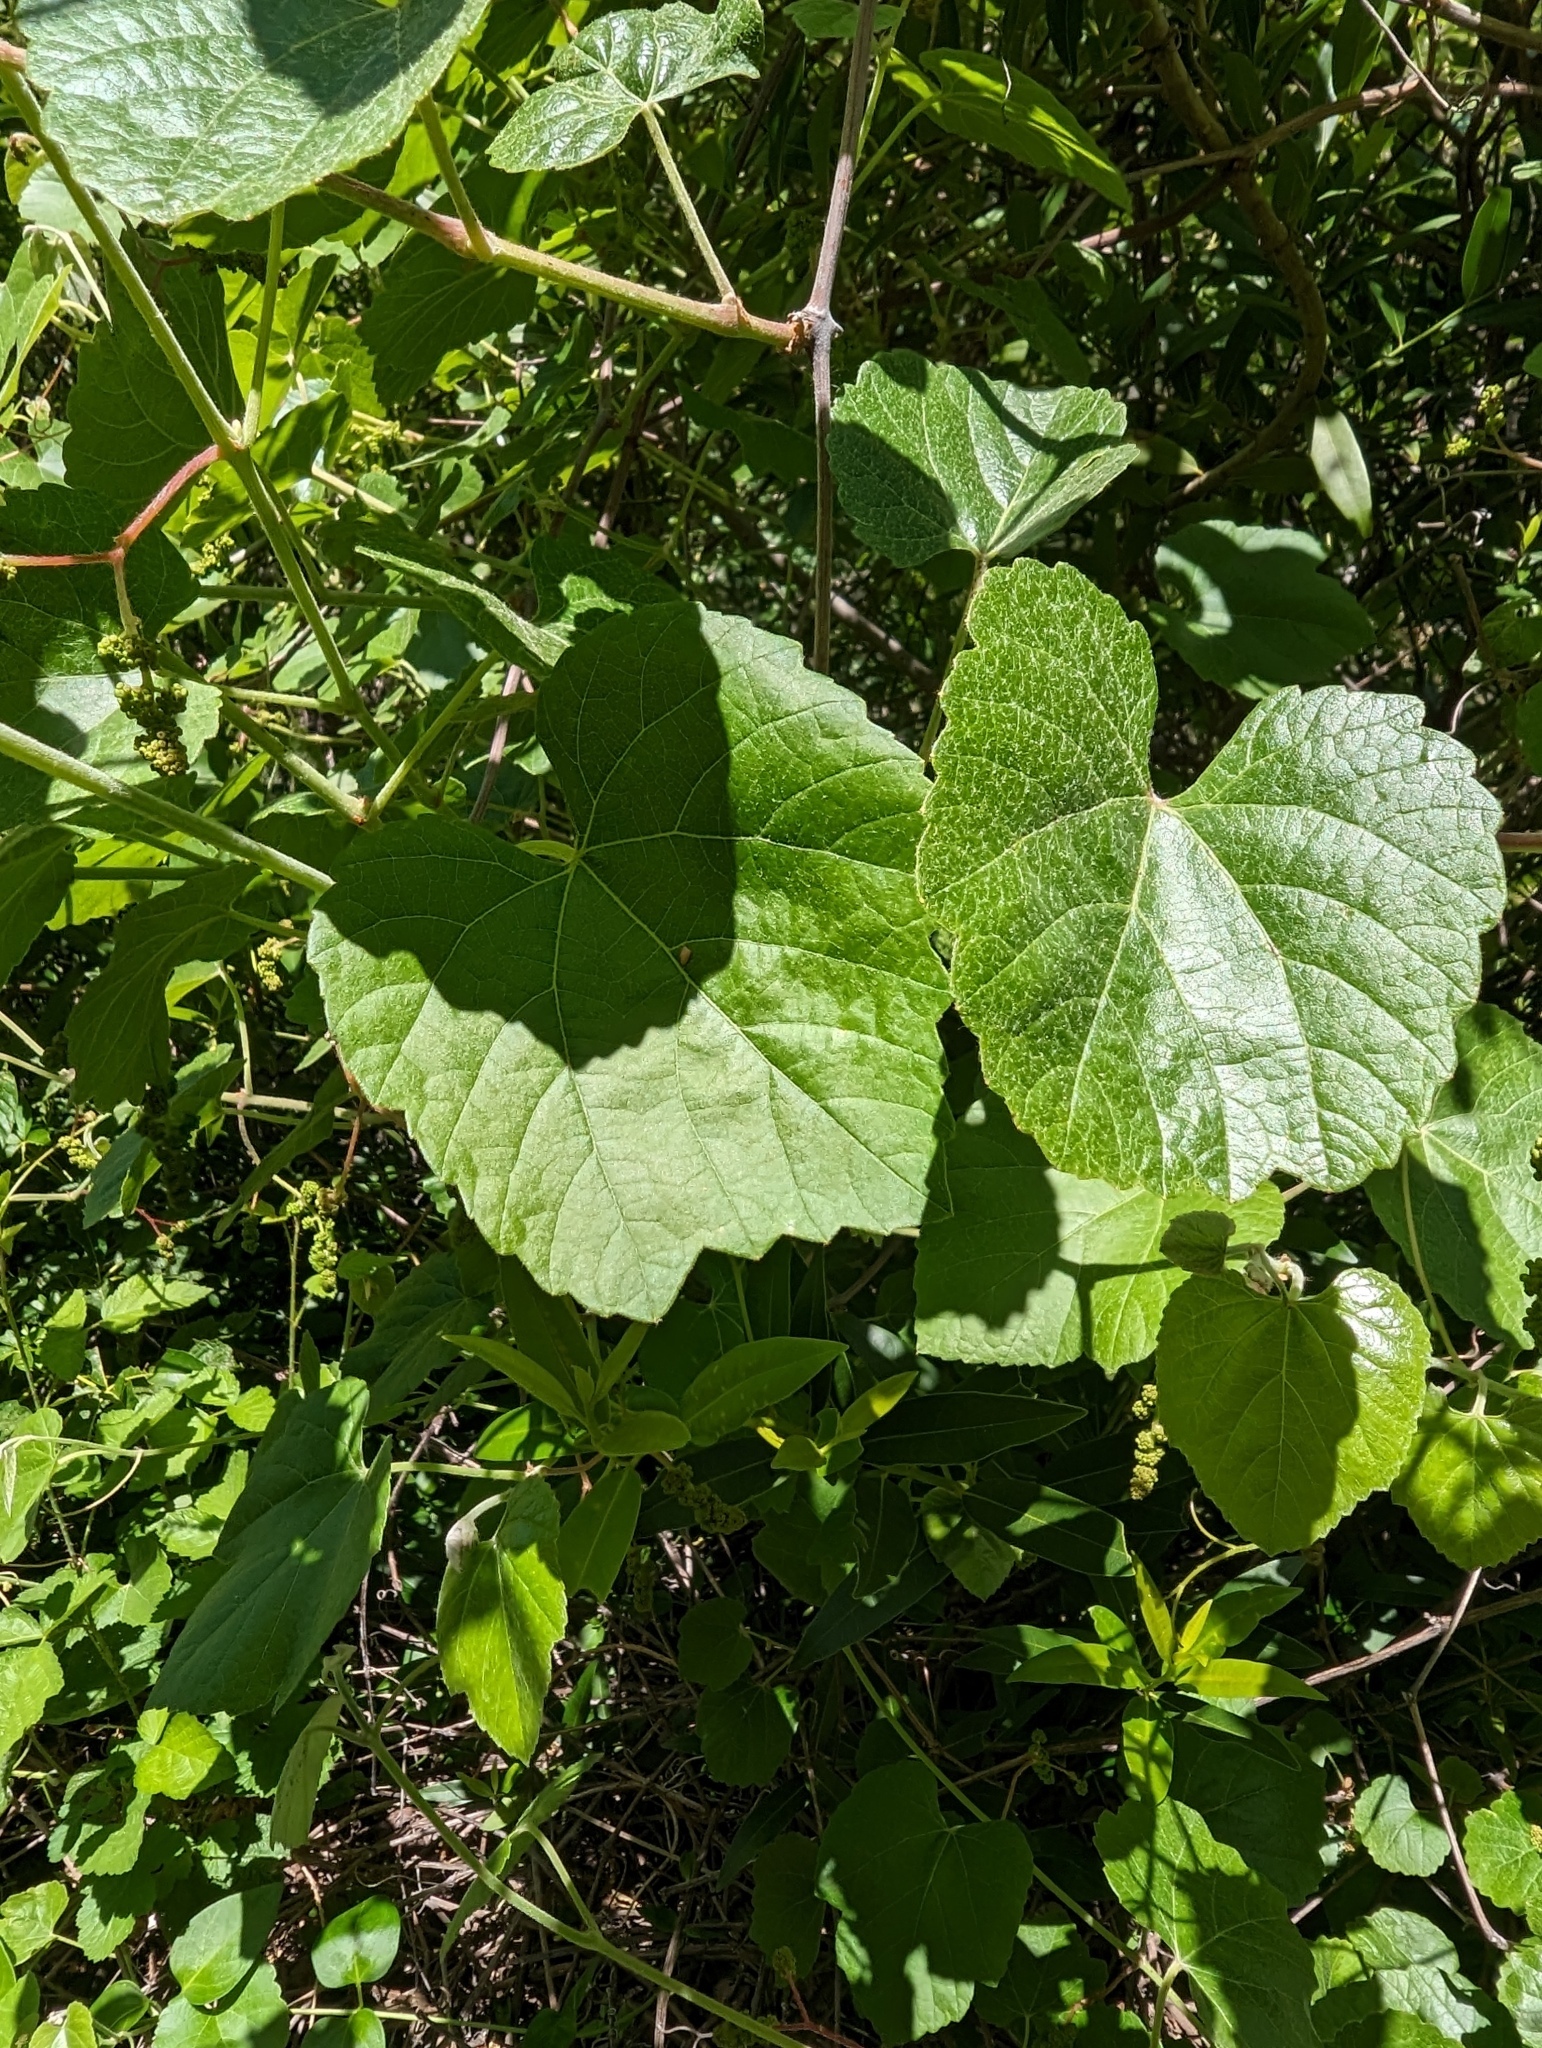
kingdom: Plantae
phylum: Tracheophyta
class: Magnoliopsida
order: Vitales
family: Vitaceae
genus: Vitis
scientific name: Vitis californica
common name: California wild grape
